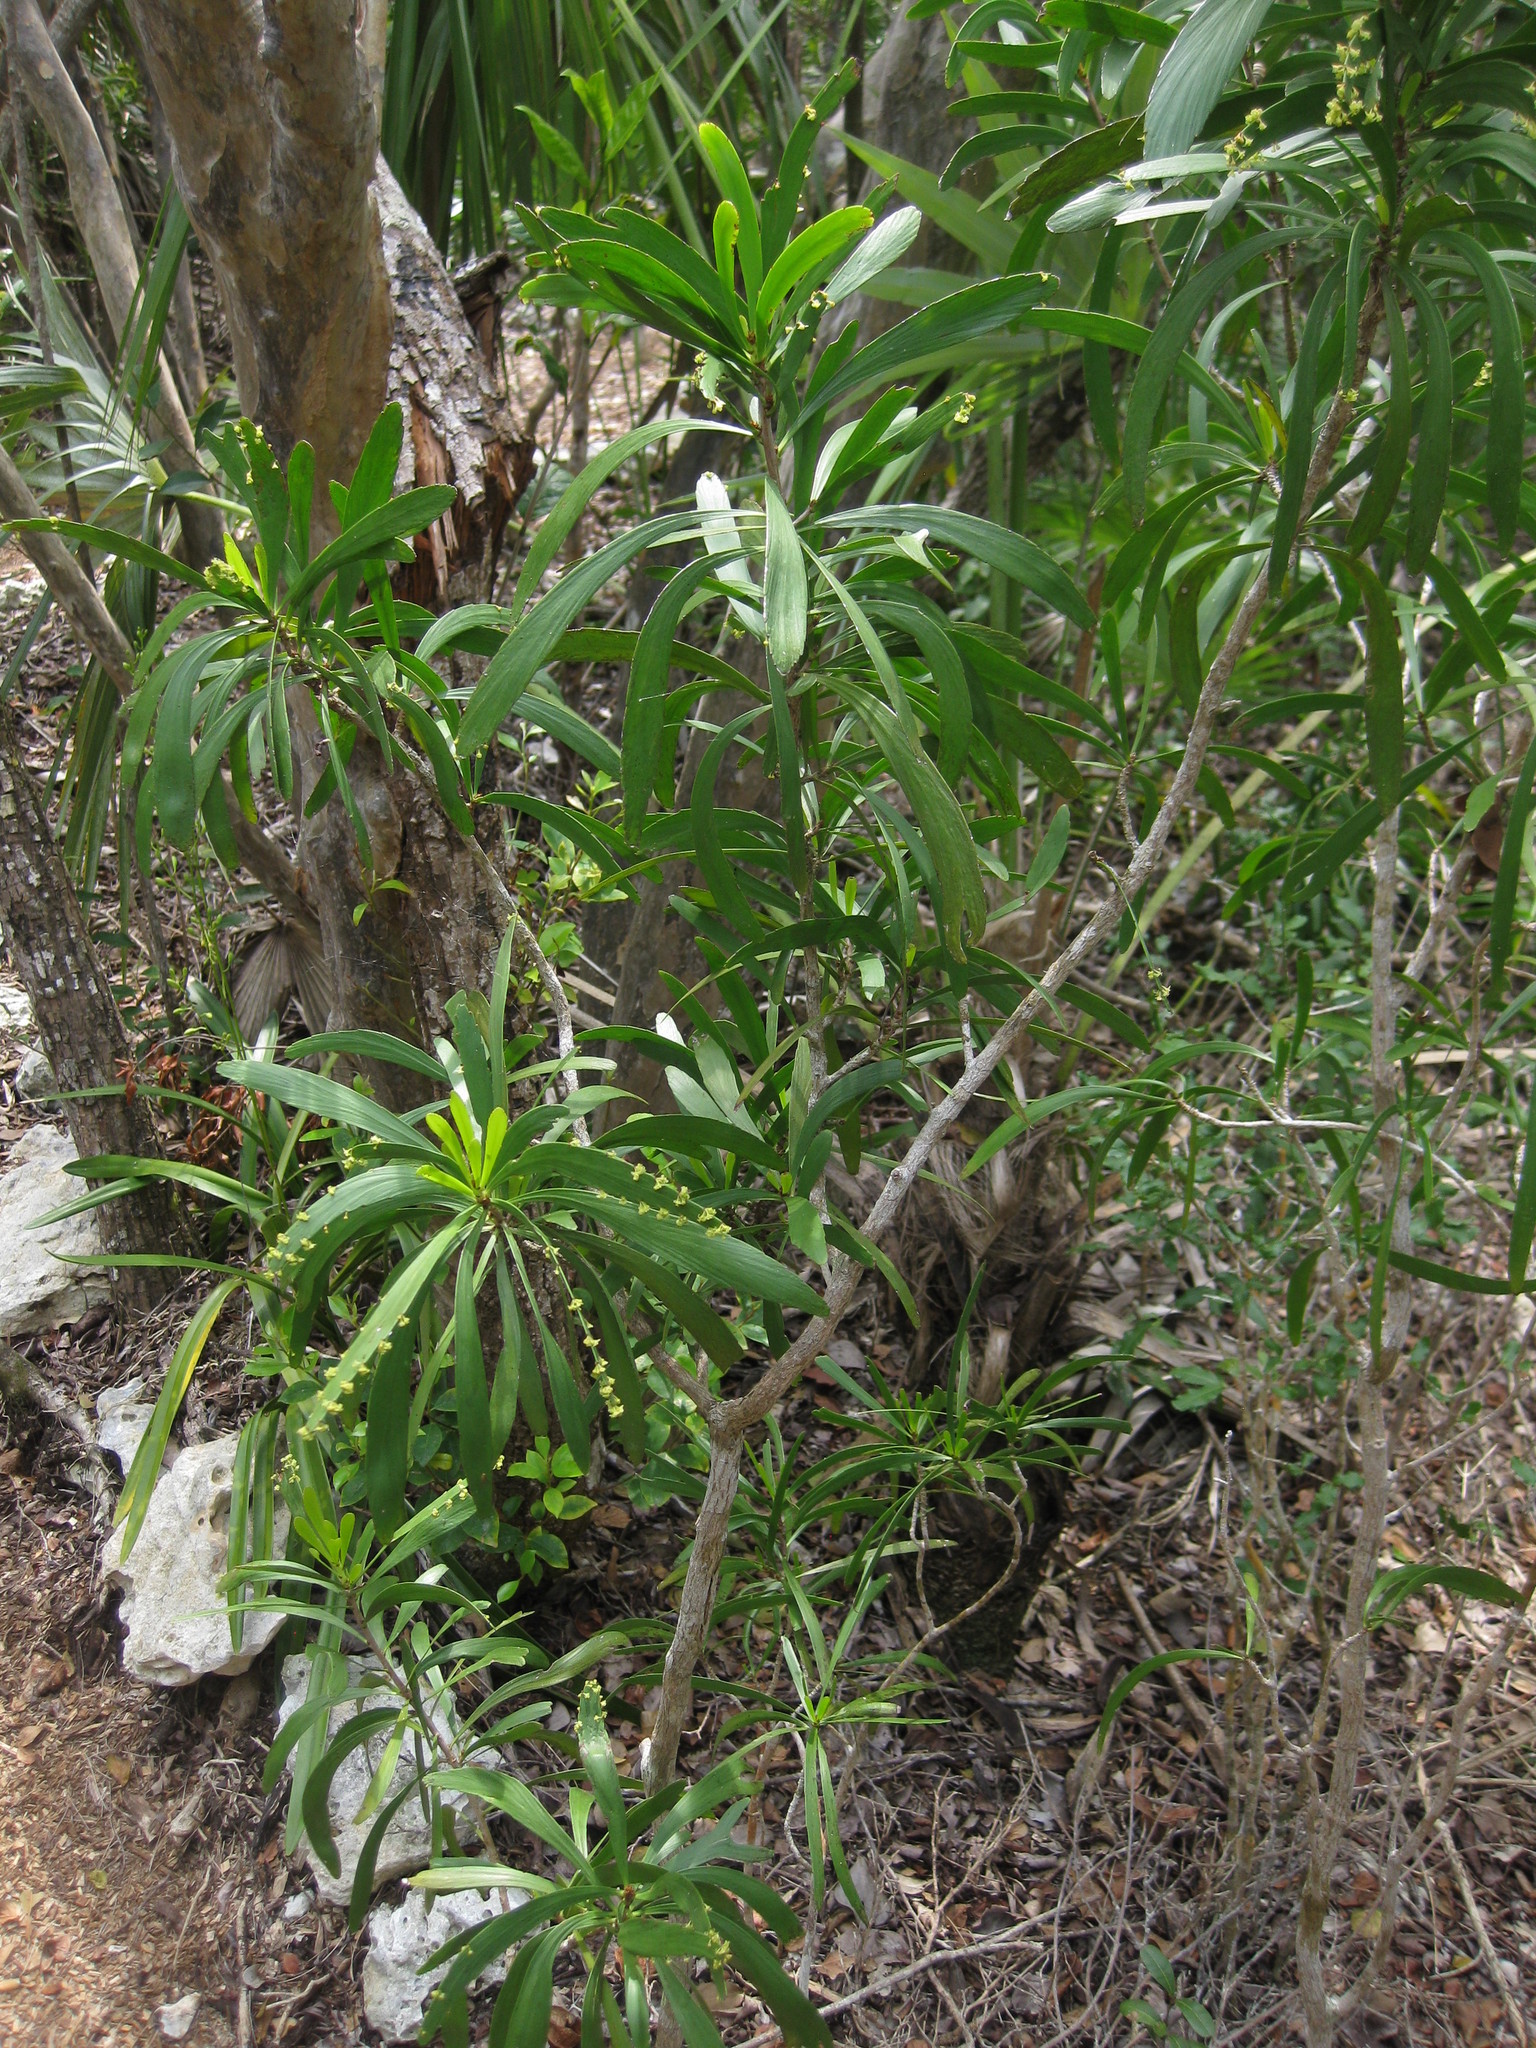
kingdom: Plantae
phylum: Tracheophyta
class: Magnoliopsida
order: Malpighiales
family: Phyllanthaceae
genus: Phyllanthus
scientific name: Phyllanthus epiphyllanthus
